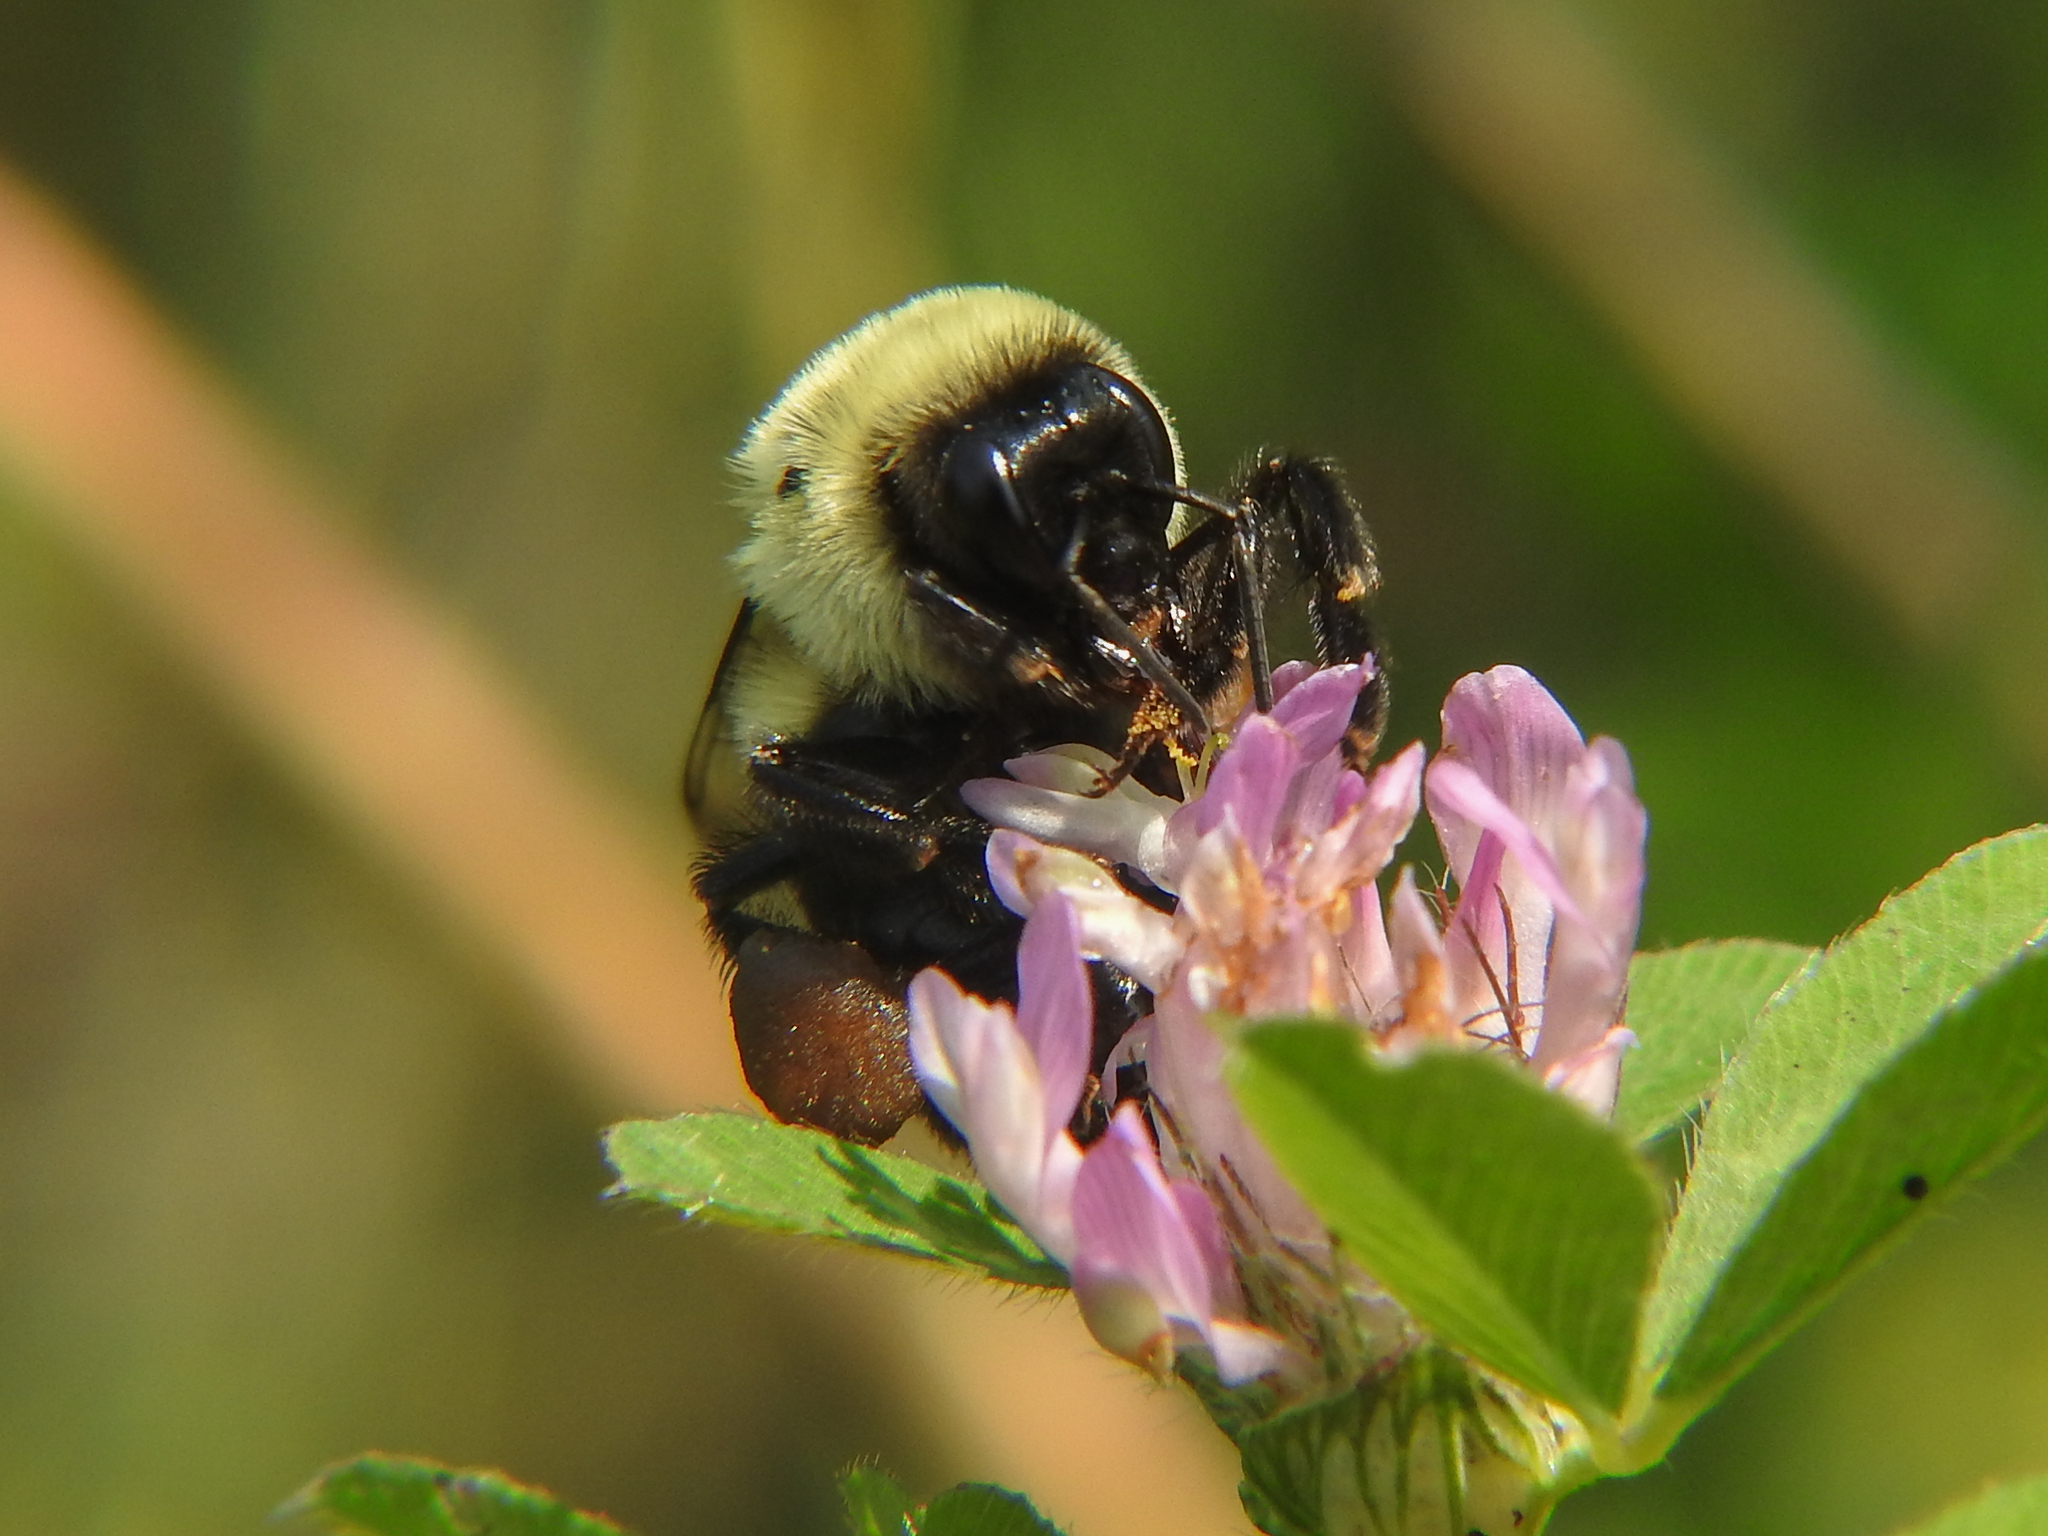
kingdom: Animalia
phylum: Arthropoda
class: Insecta
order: Hymenoptera
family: Apidae
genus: Bombus
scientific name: Bombus impatiens
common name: Common eastern bumble bee
